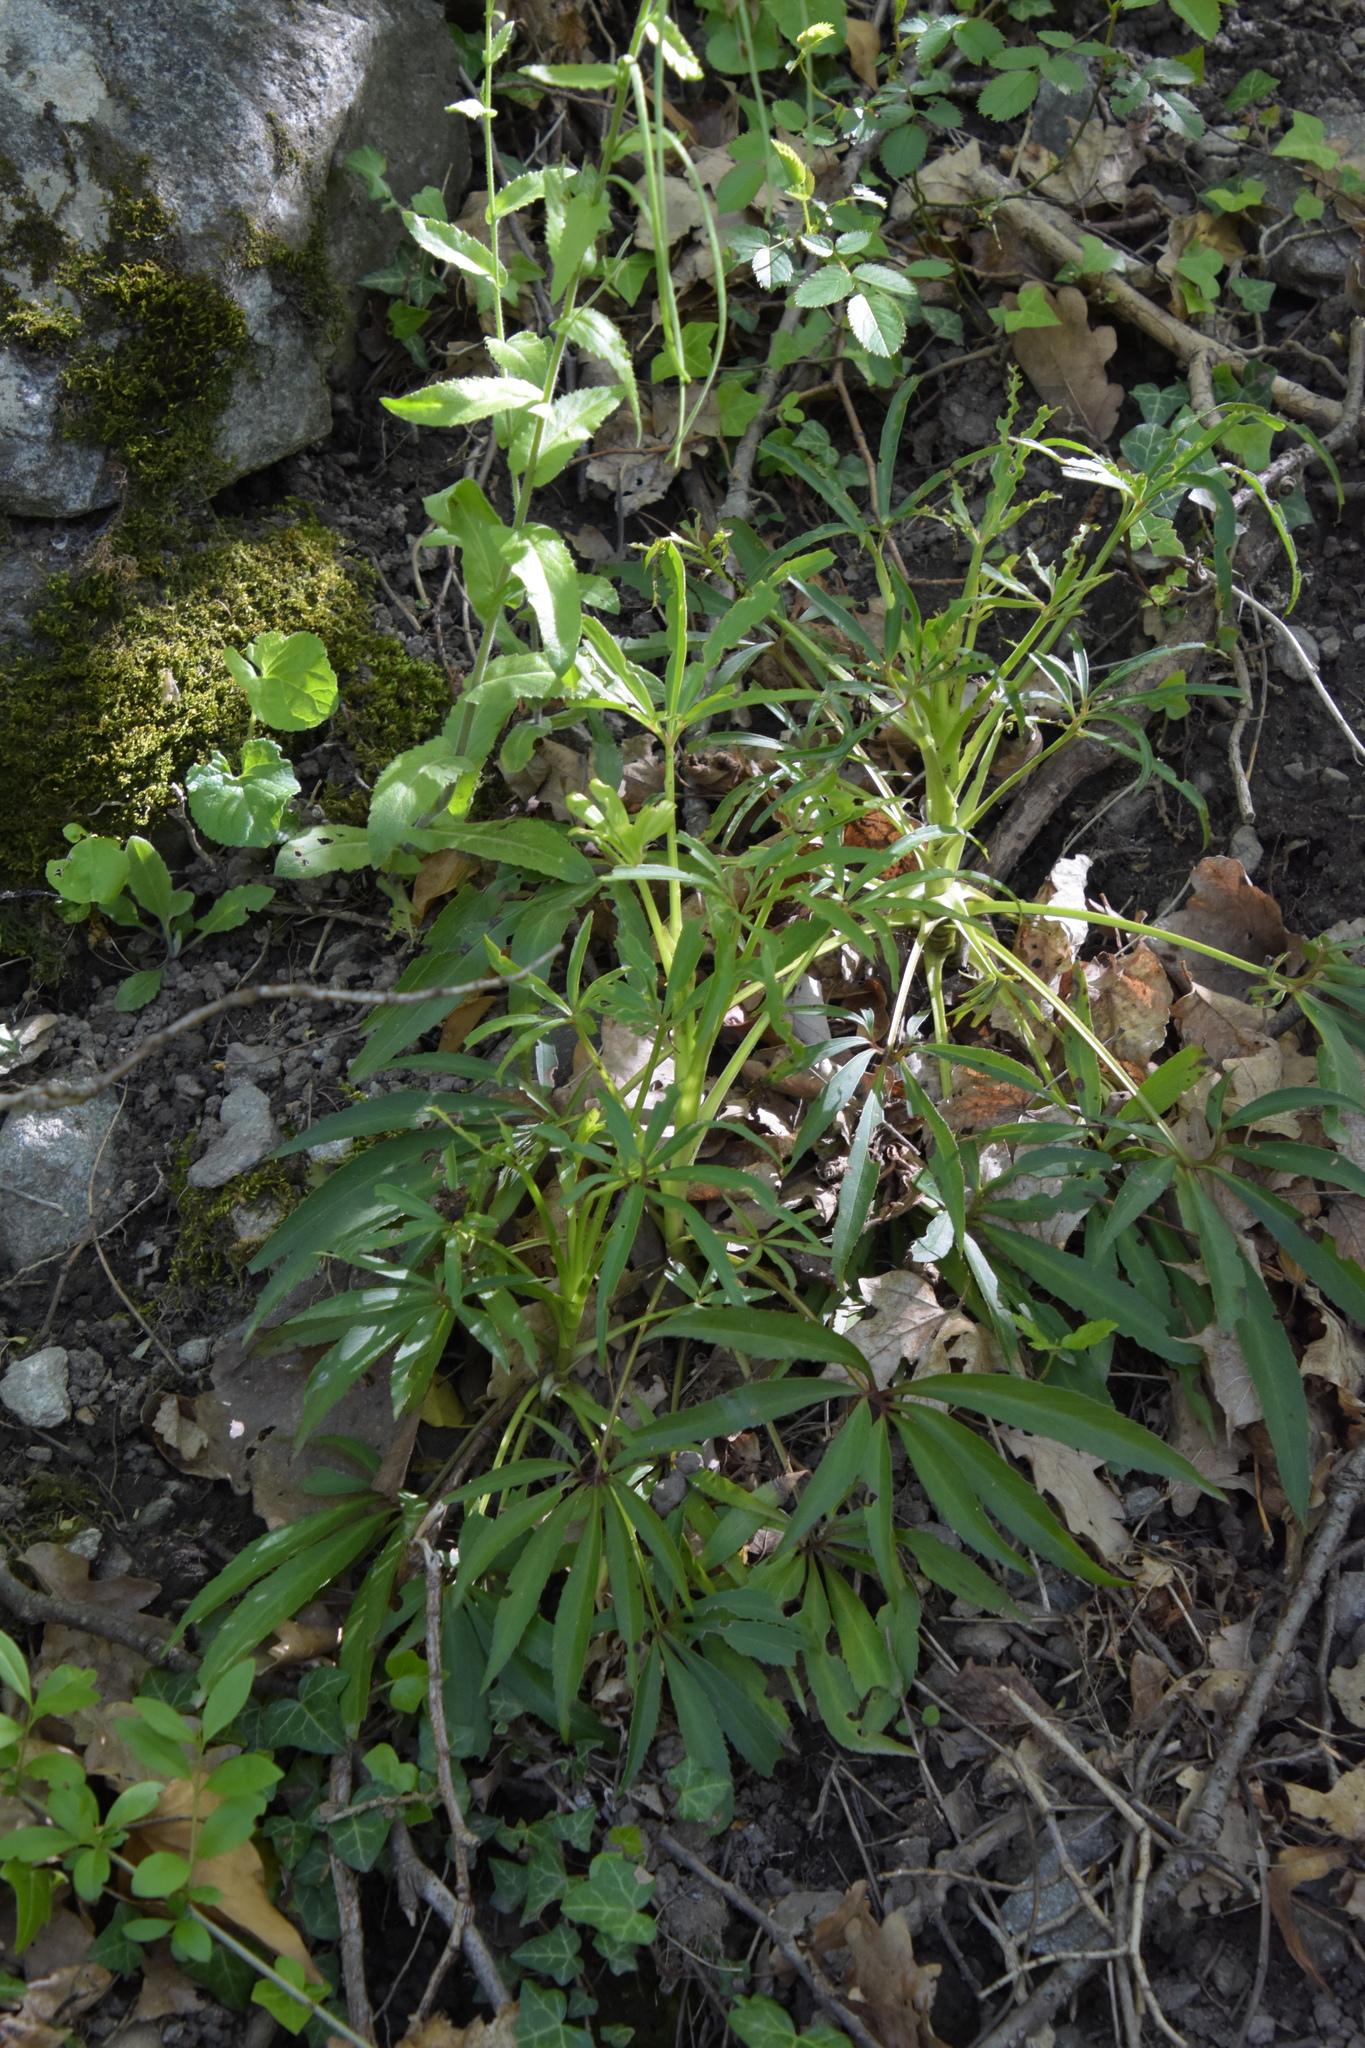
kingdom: Plantae
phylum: Tracheophyta
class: Magnoliopsida
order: Ranunculales
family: Ranunculaceae
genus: Helleborus
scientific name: Helleborus foetidus
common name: Stinking hellebore
